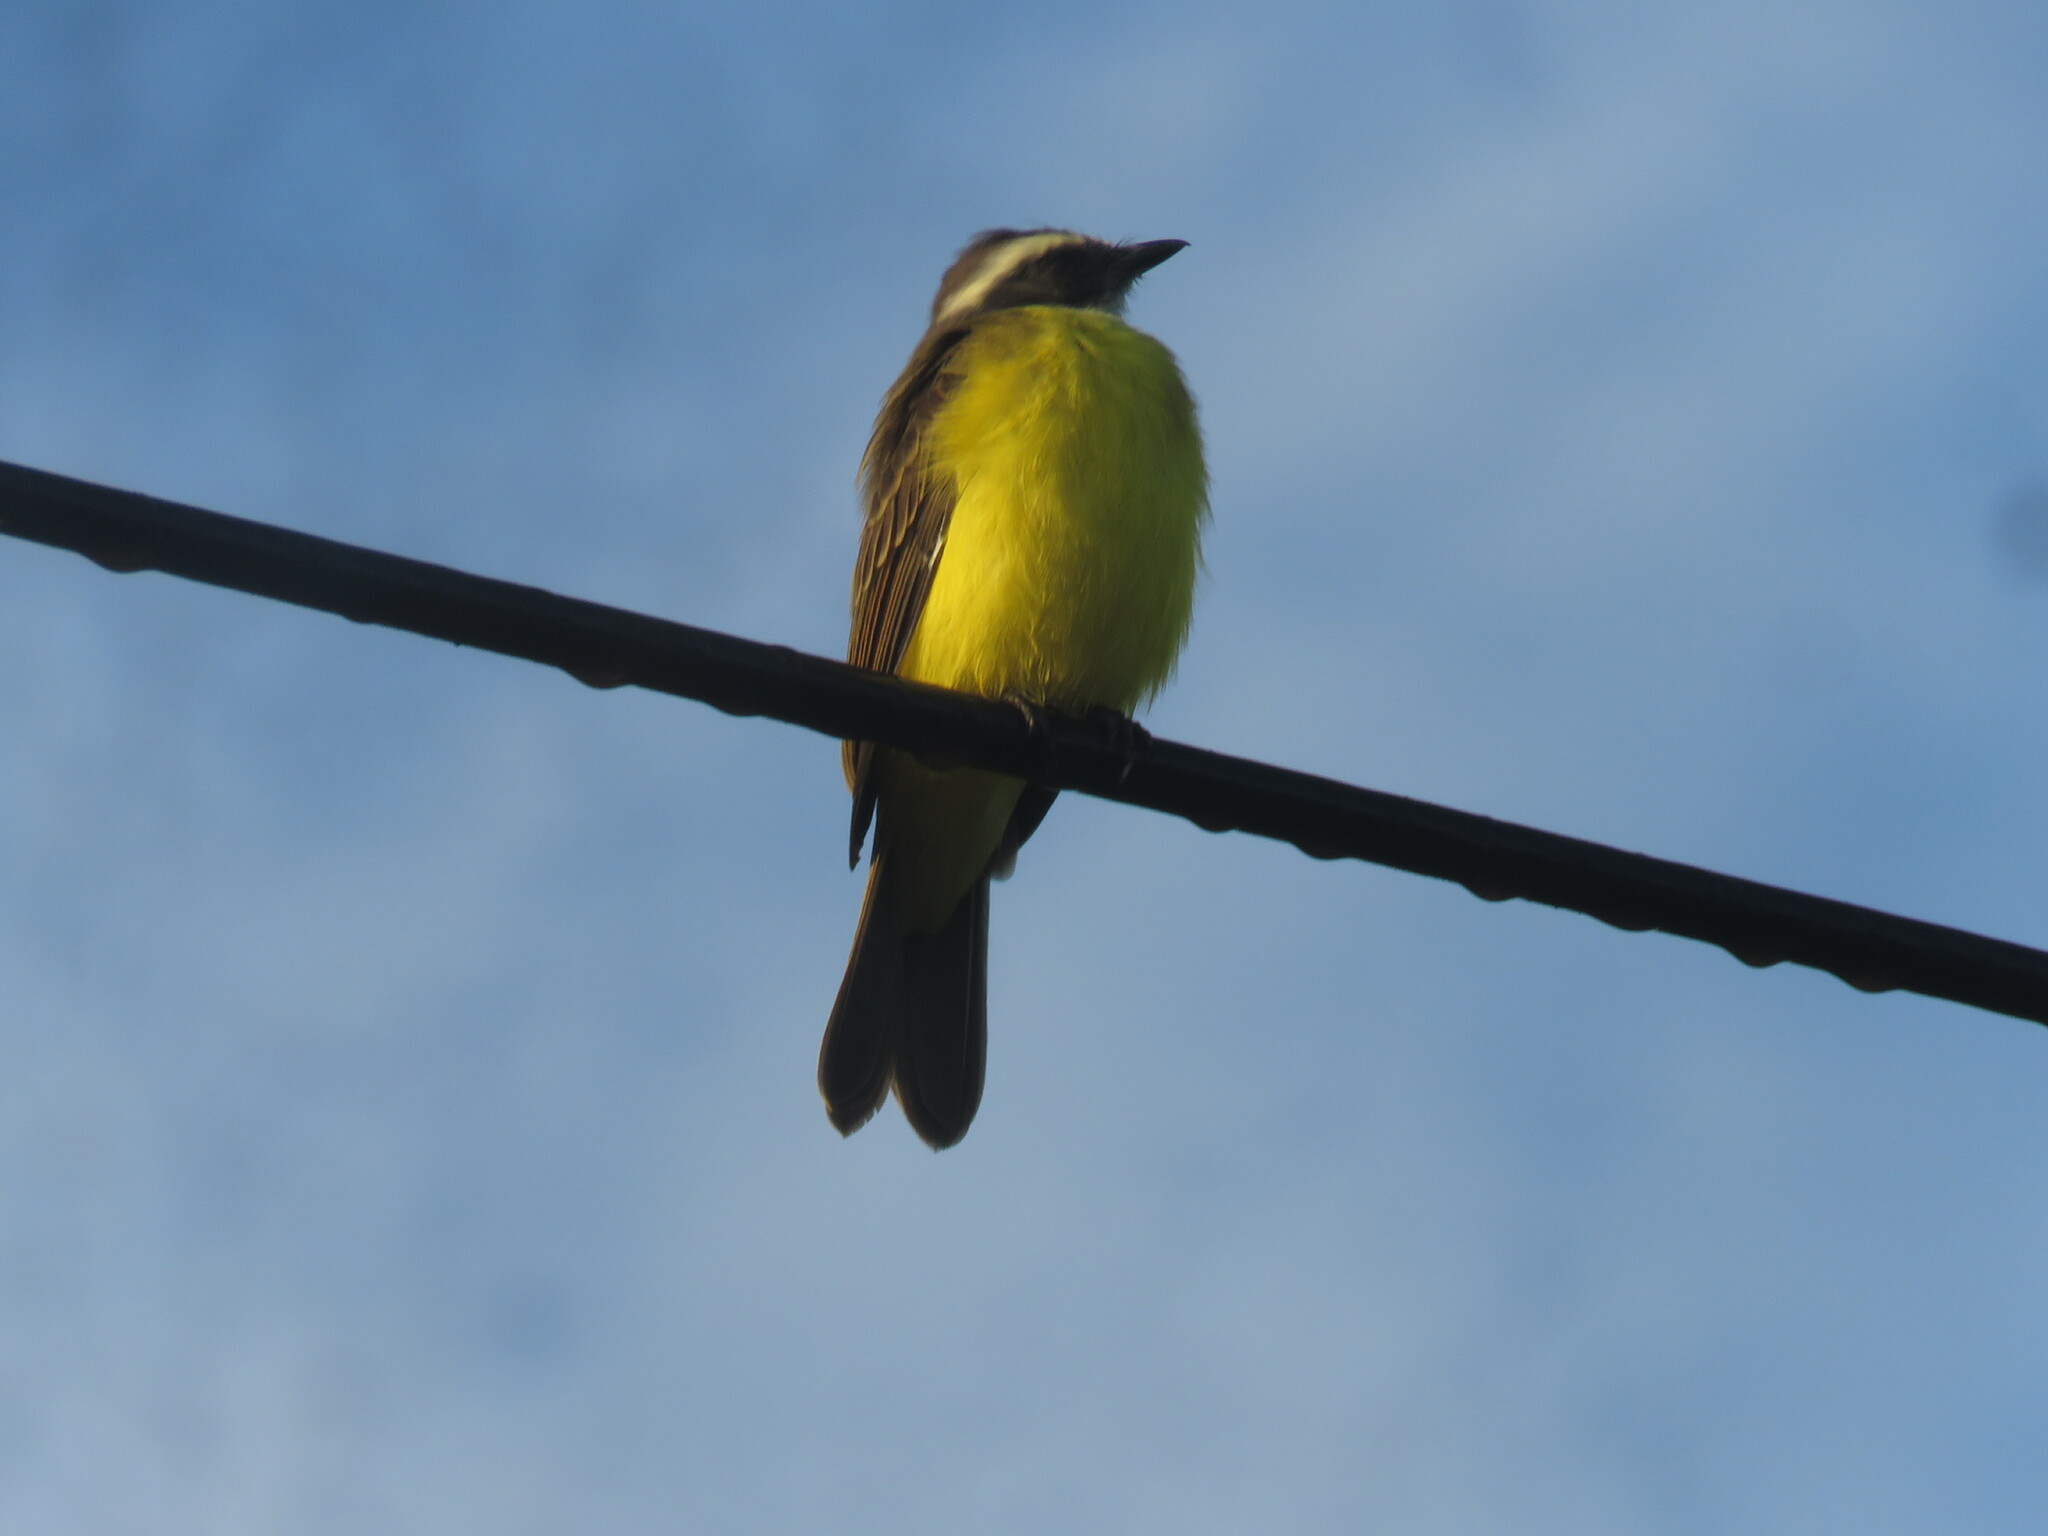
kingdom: Animalia
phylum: Chordata
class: Aves
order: Passeriformes
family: Tyrannidae
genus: Myiozetetes
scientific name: Myiozetetes cayanensis
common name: Rusty-margined flycatcher
